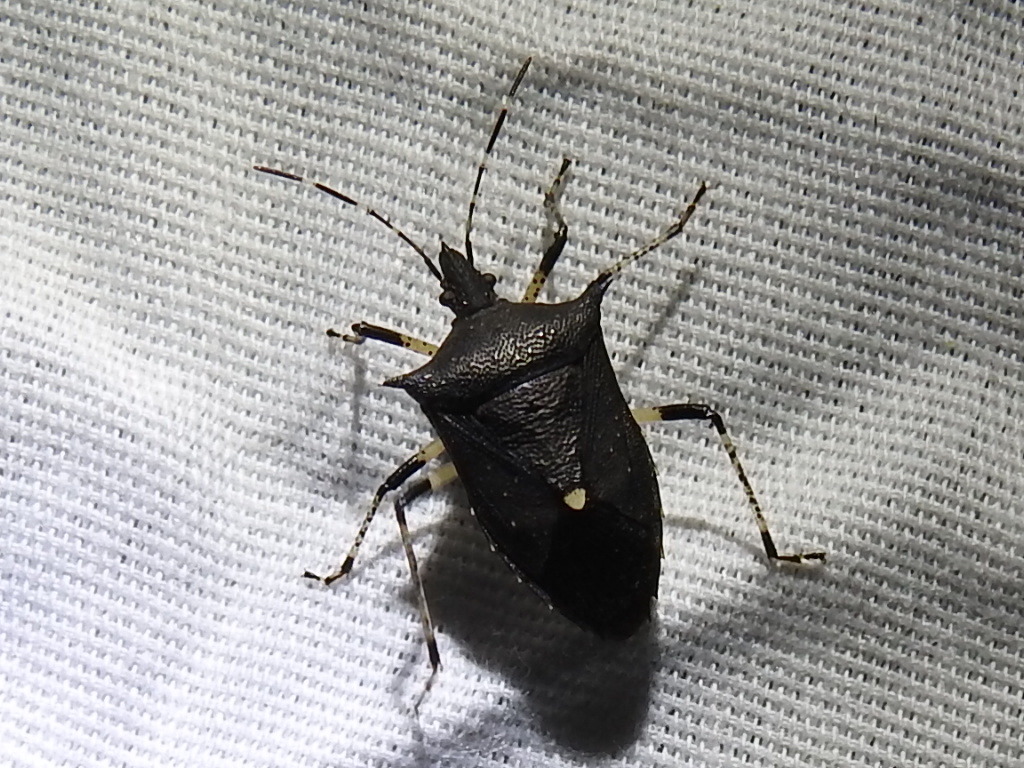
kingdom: Animalia
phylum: Arthropoda
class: Insecta
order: Hemiptera
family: Pentatomidae
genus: Proxys
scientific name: Proxys punctulatus
